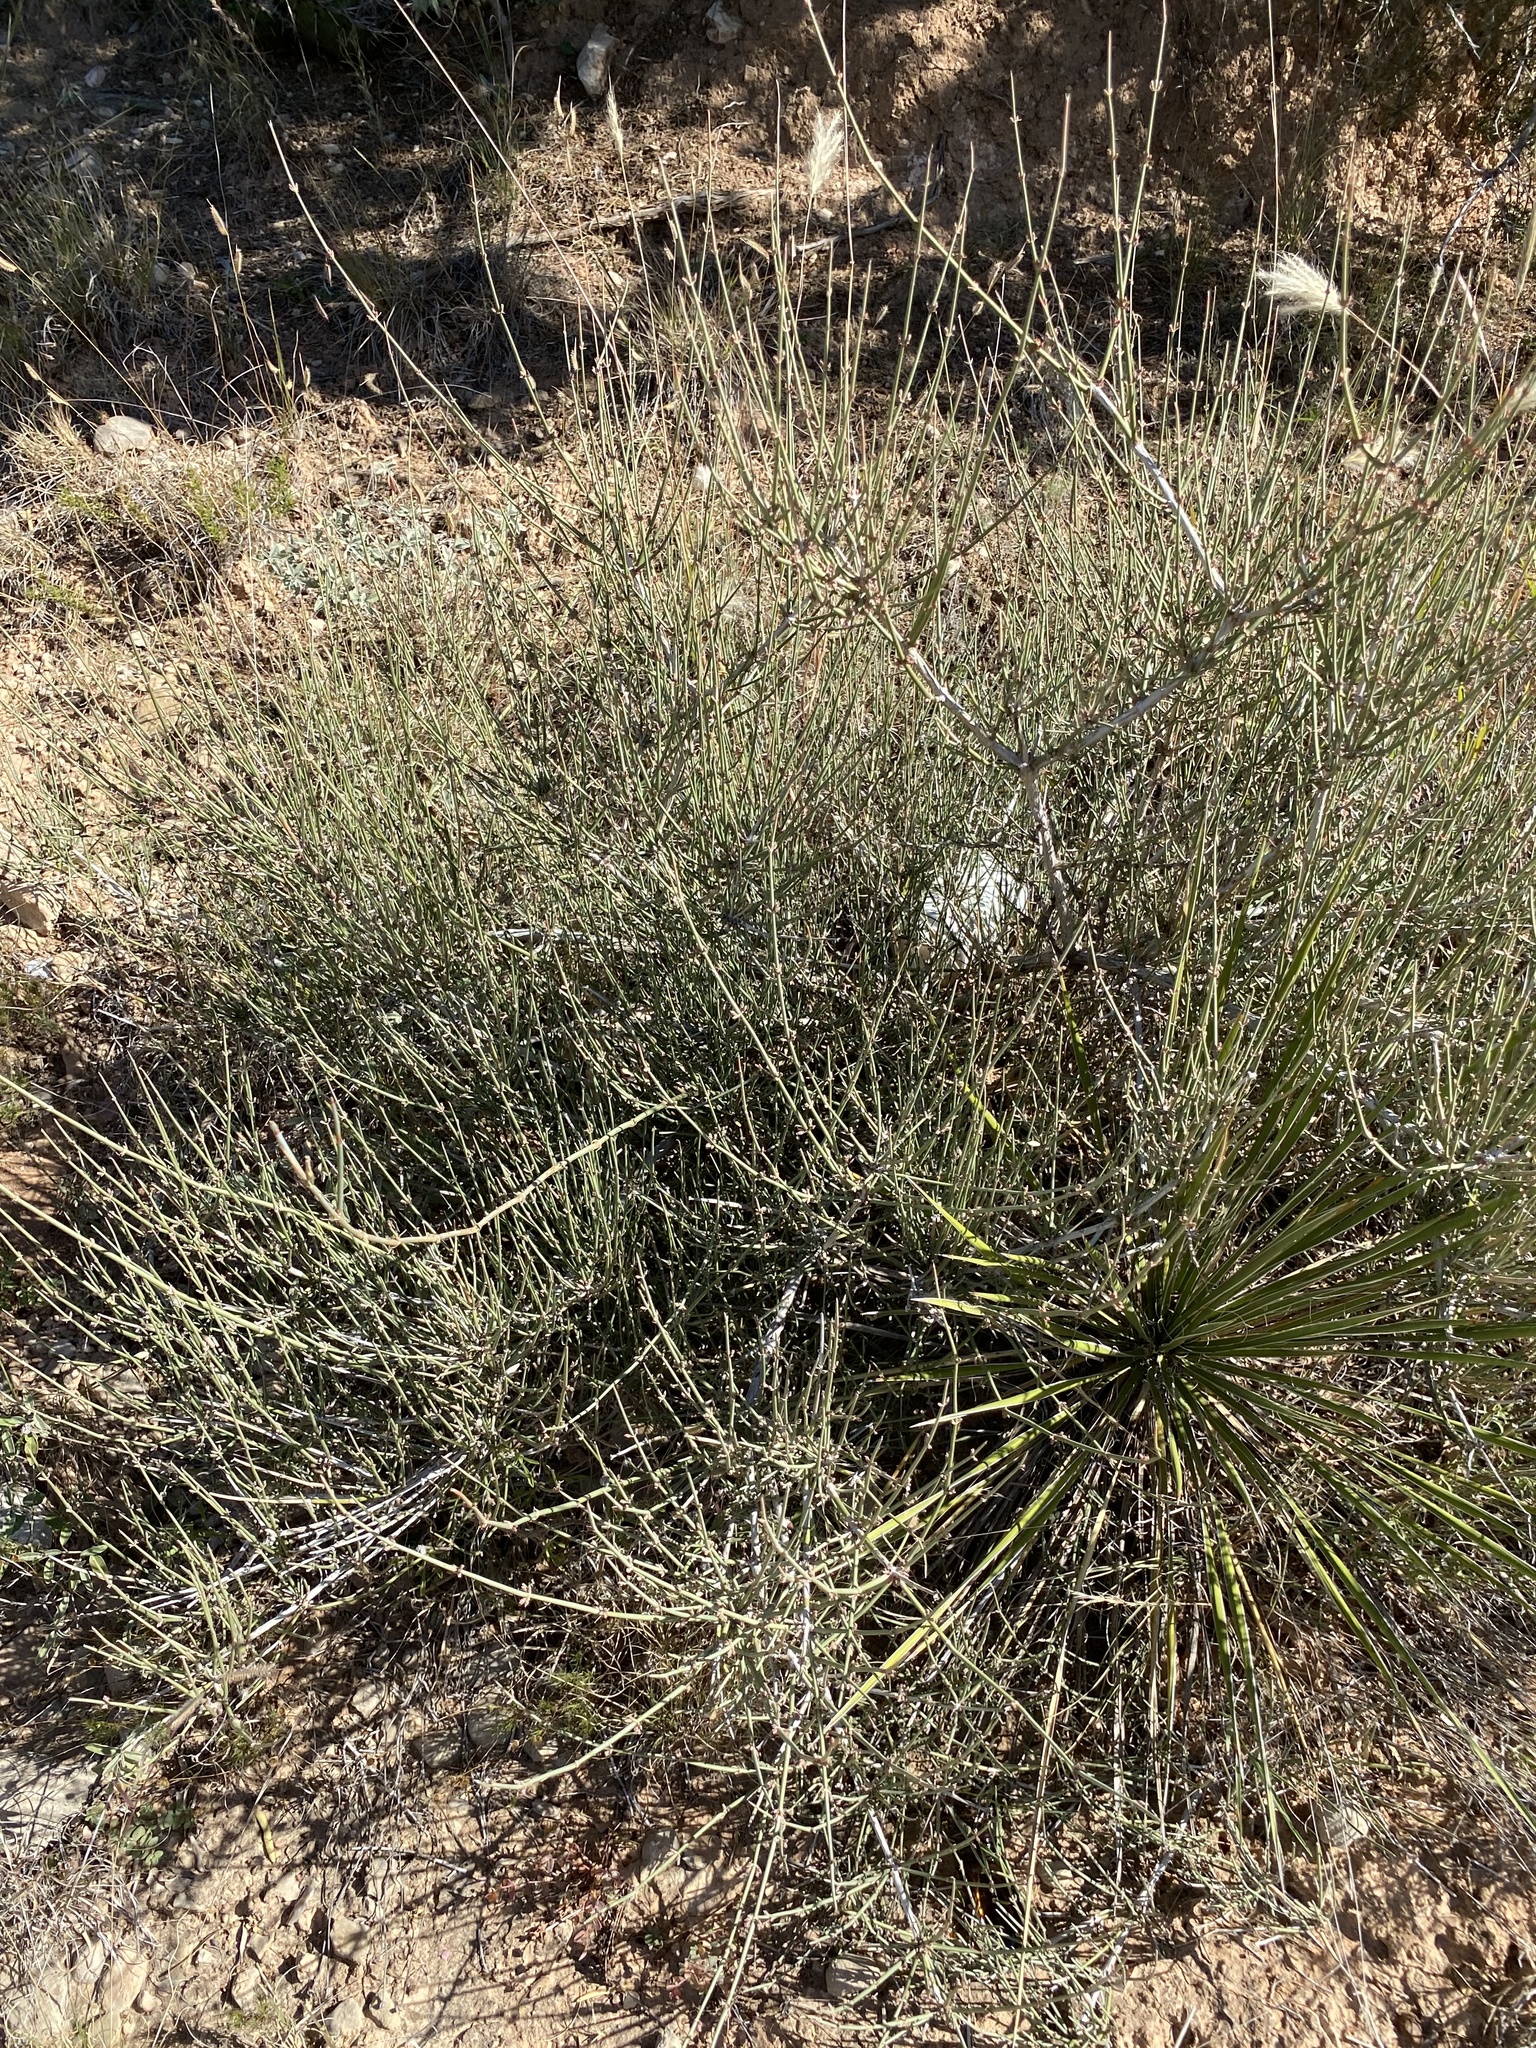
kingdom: Plantae
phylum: Tracheophyta
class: Gnetopsida
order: Ephedrales
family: Ephedraceae
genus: Ephedra
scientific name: Ephedra antisyphilitica
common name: Clipweed
